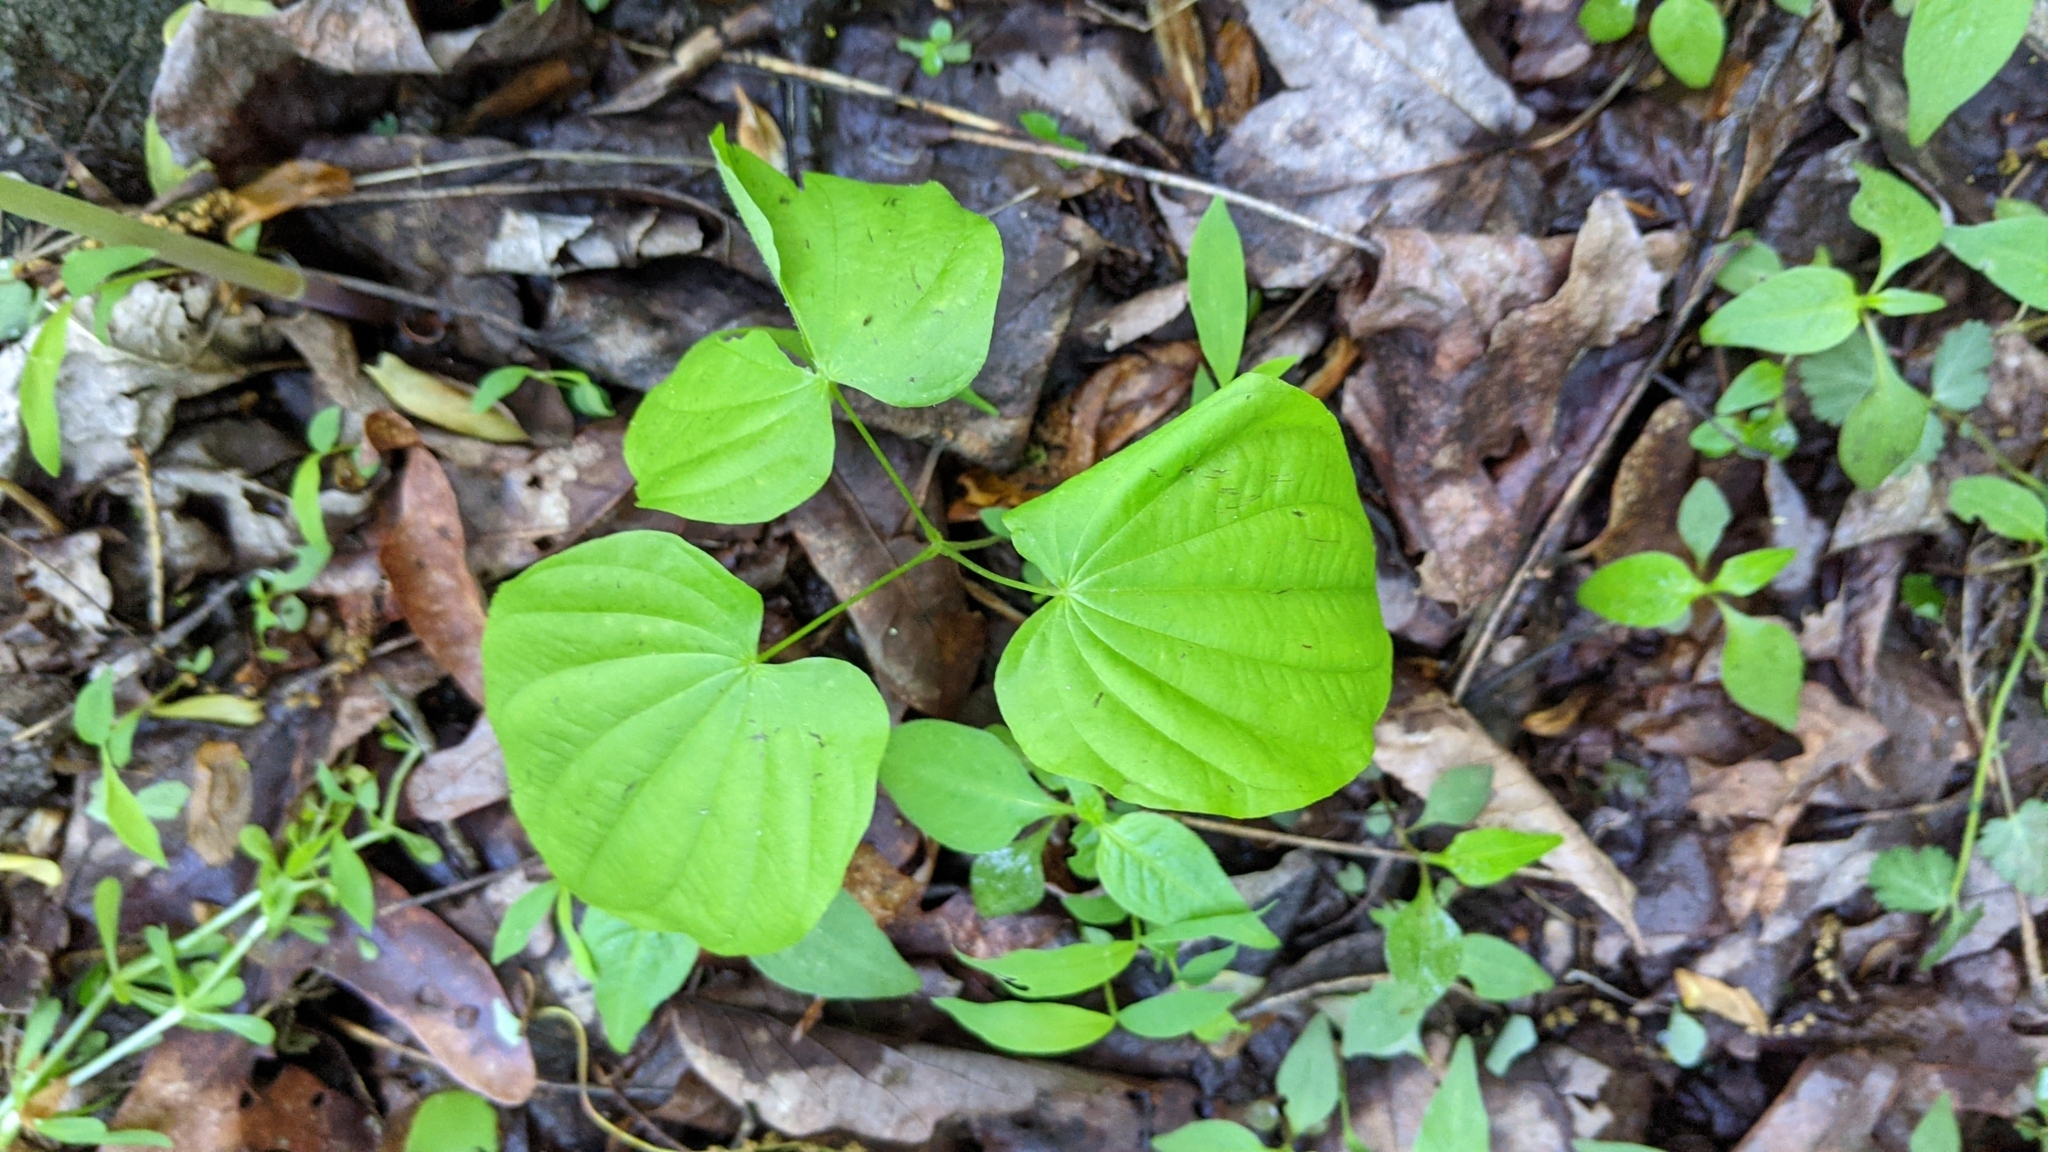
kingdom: Plantae
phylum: Tracheophyta
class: Liliopsida
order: Dioscoreales
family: Dioscoreaceae
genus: Dioscorea
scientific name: Dioscorea villosa
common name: Wild yam
